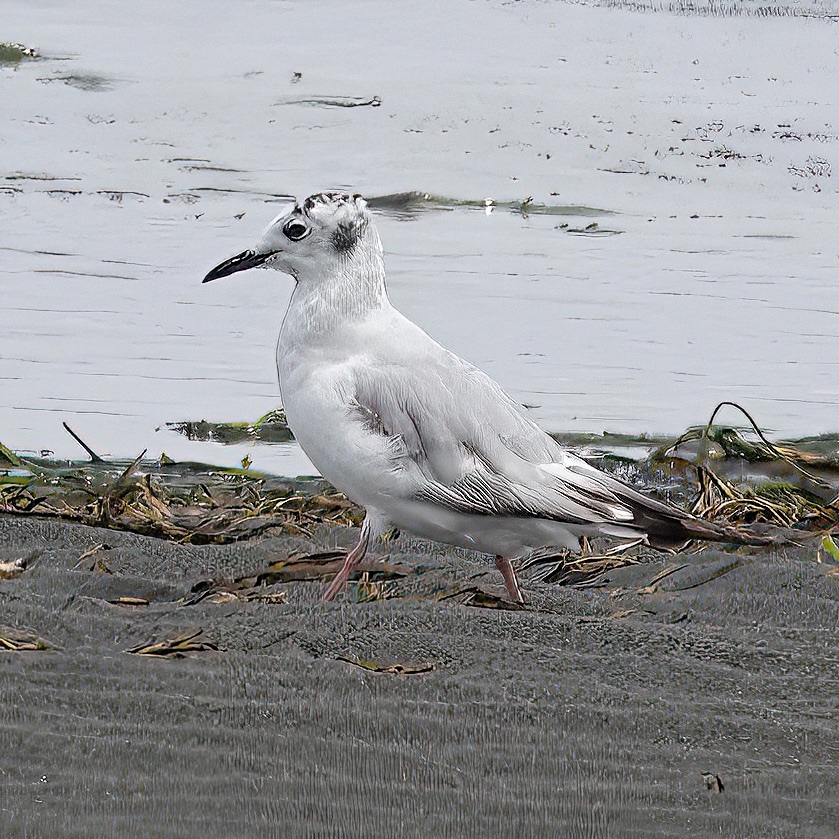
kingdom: Animalia
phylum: Chordata
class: Aves
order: Charadriiformes
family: Laridae
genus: Chroicocephalus
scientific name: Chroicocephalus philadelphia
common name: Bonaparte's gull
